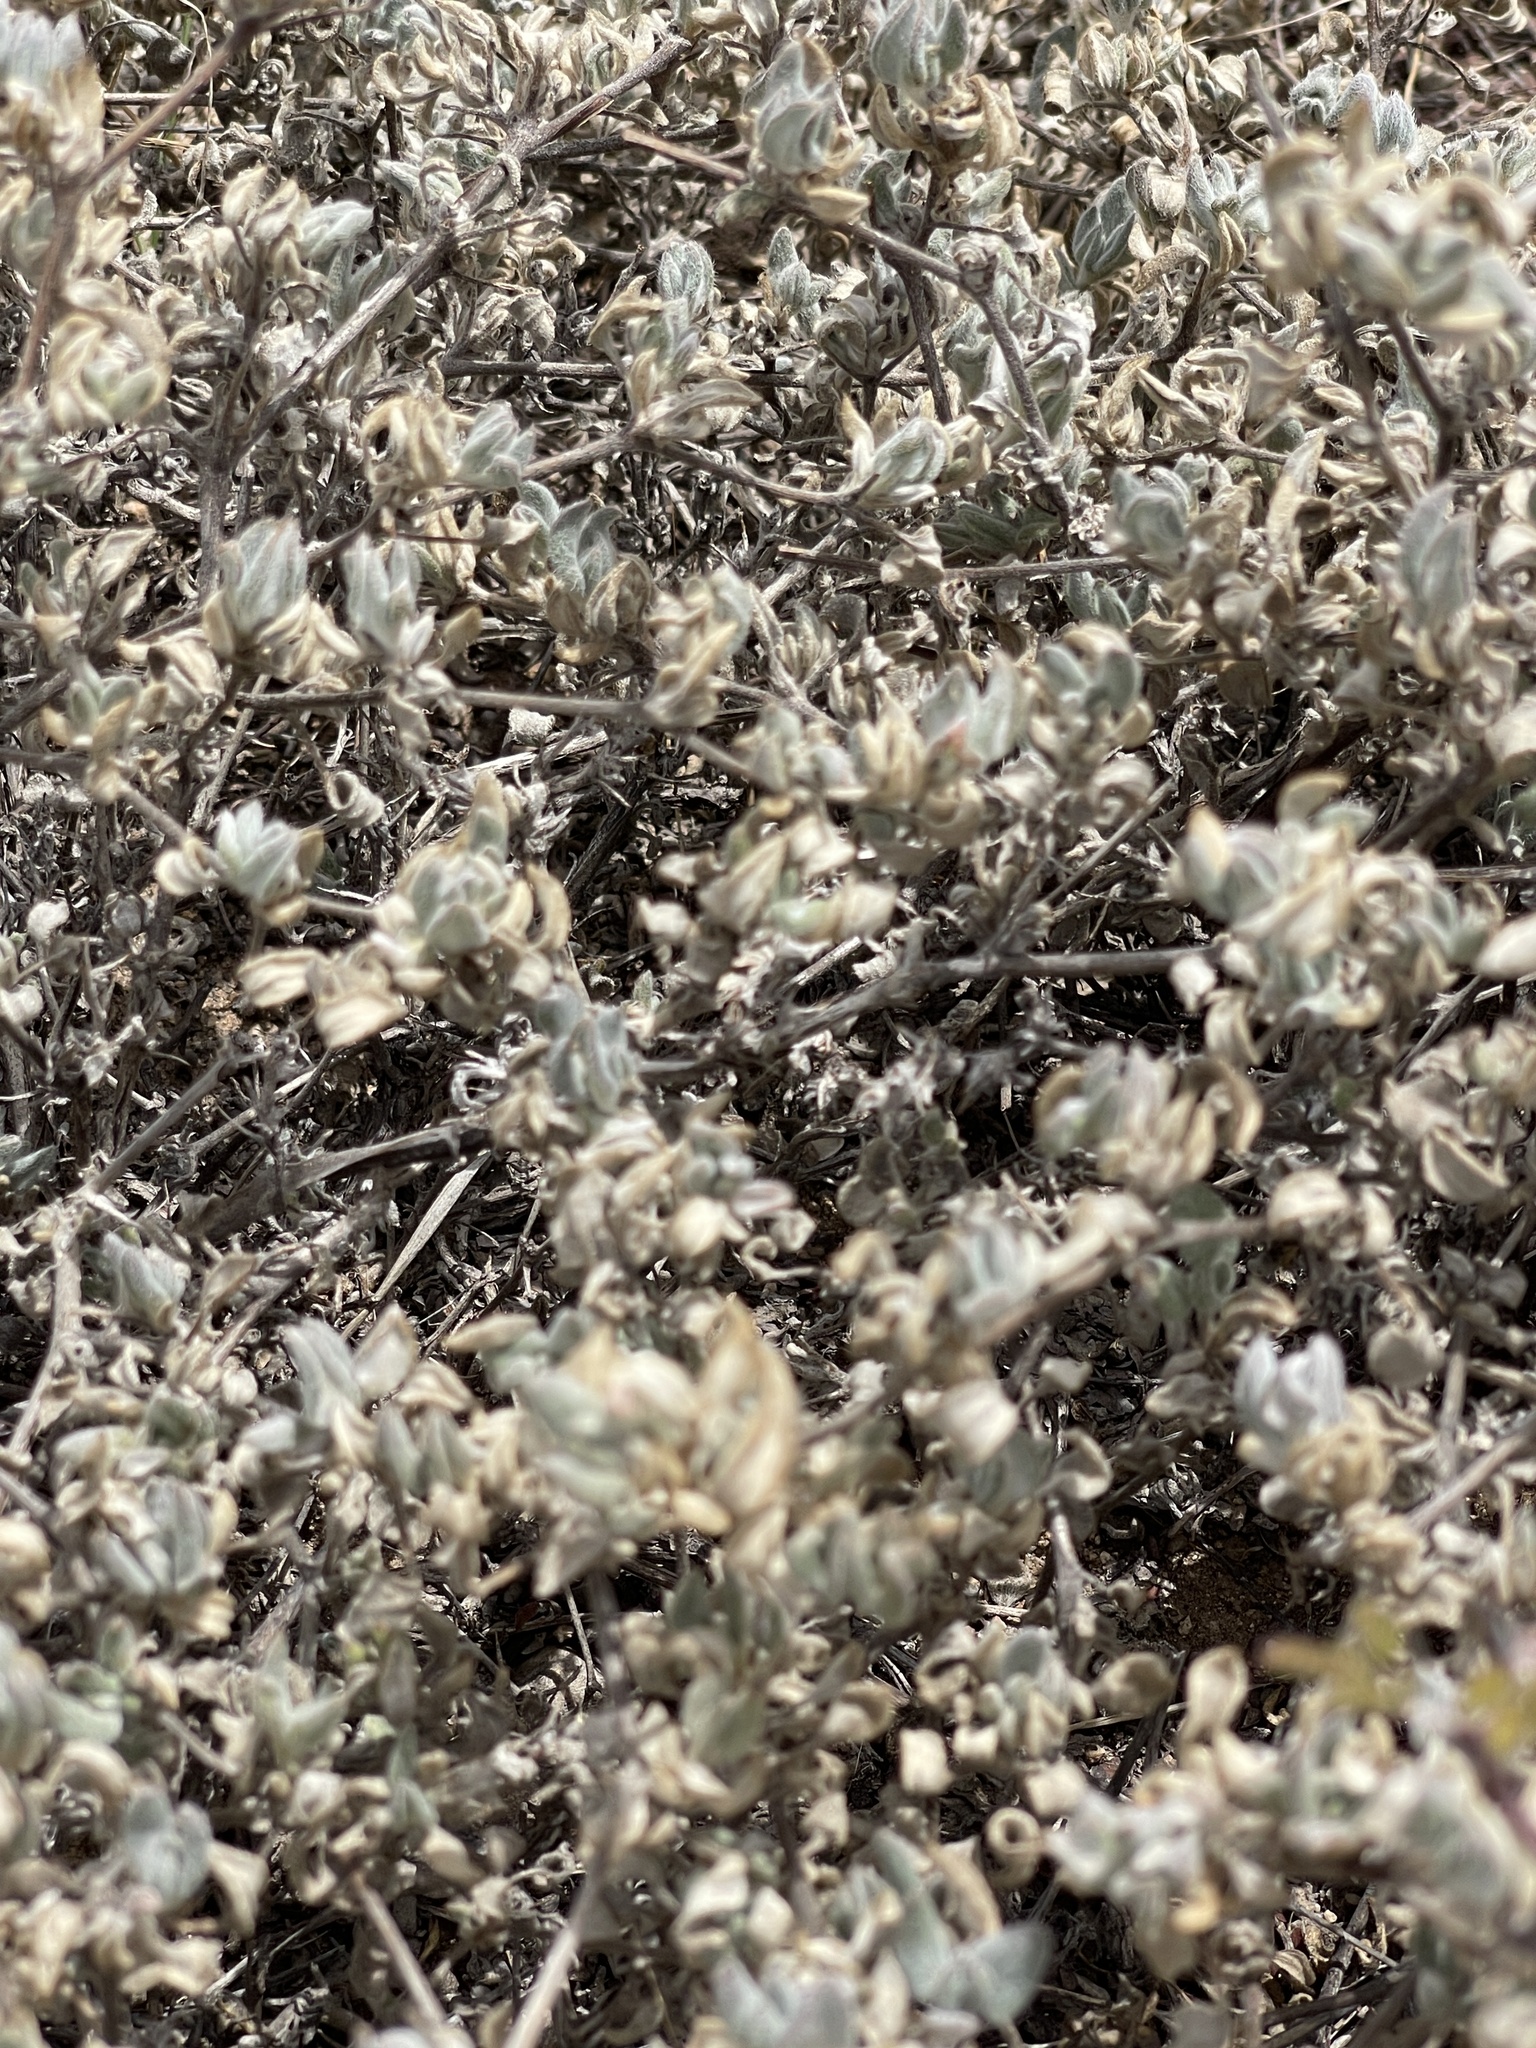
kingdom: Plantae
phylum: Tracheophyta
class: Magnoliopsida
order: Boraginales
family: Ehretiaceae
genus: Tiquilia
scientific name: Tiquilia canescens
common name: Hairy tiquilia
